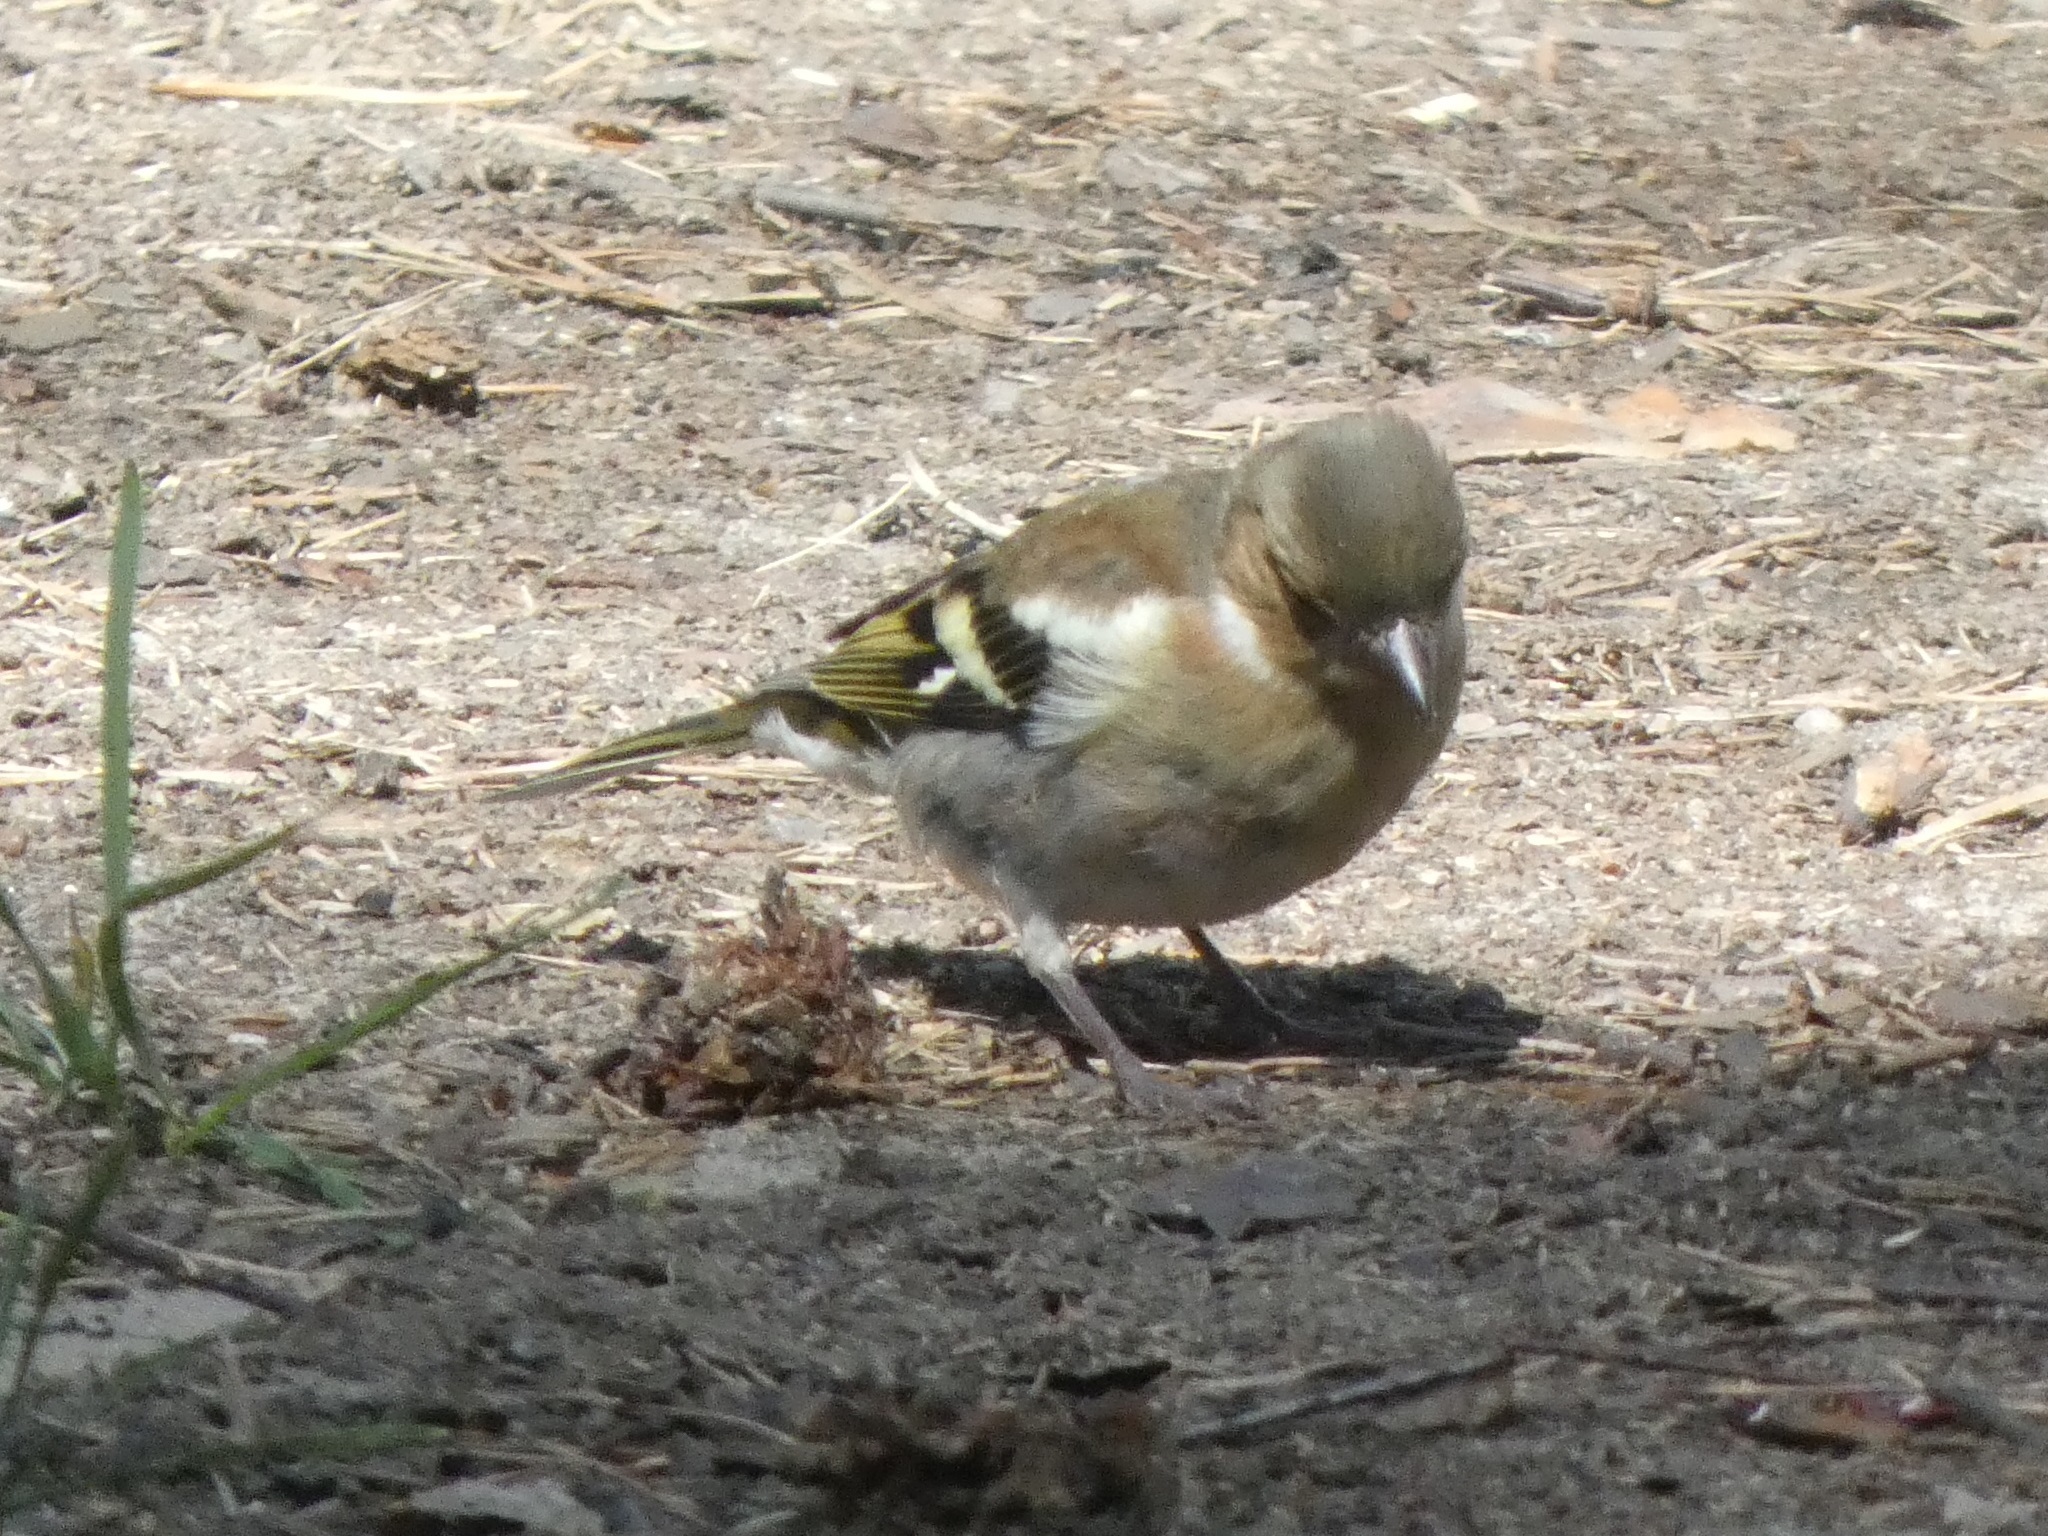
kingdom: Animalia
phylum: Chordata
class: Aves
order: Passeriformes
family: Fringillidae
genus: Fringilla
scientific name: Fringilla coelebs
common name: Common chaffinch
